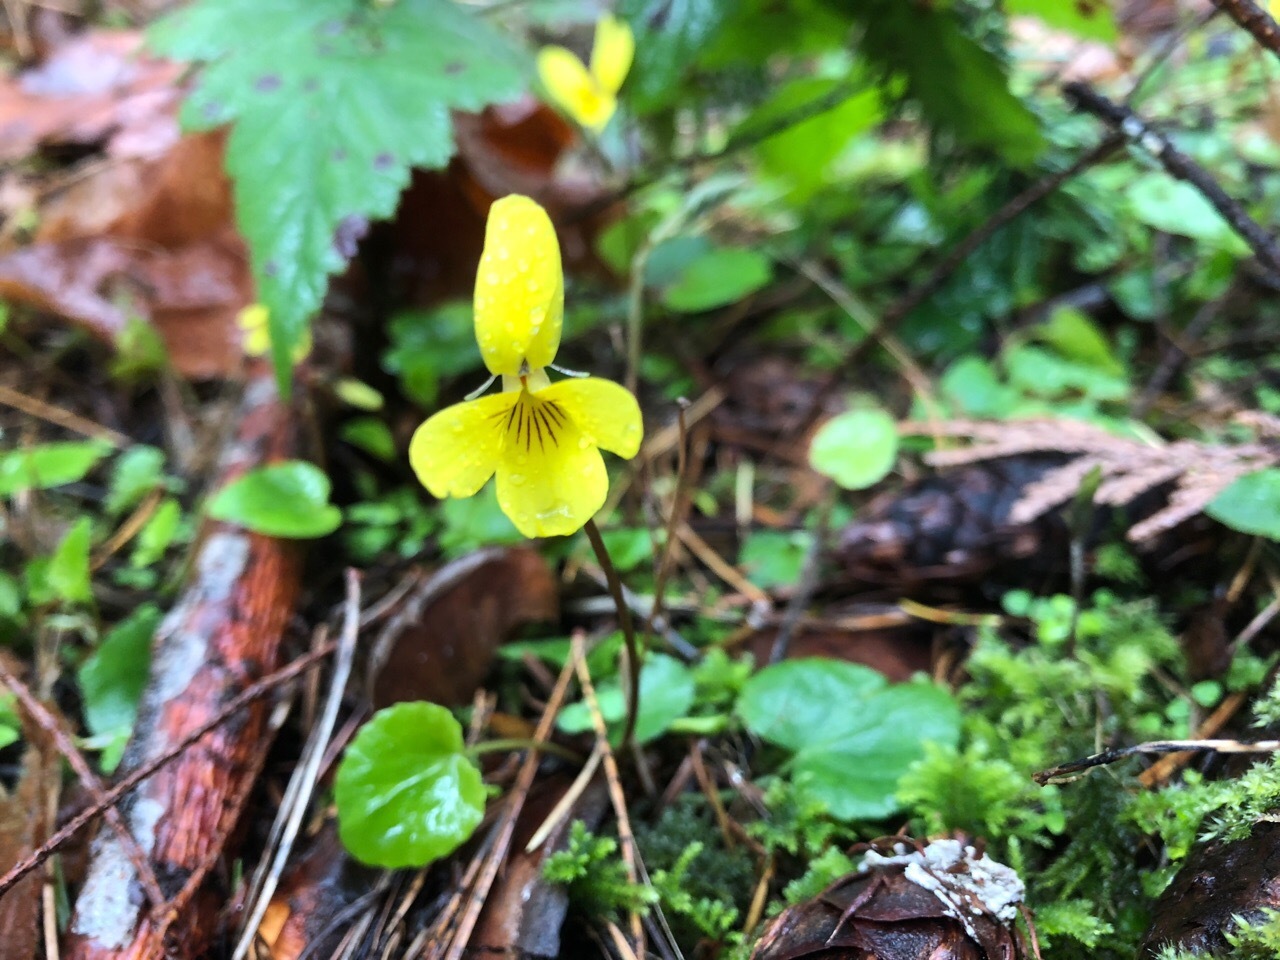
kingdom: Plantae
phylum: Tracheophyta
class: Magnoliopsida
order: Malpighiales
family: Violaceae
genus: Viola
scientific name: Viola sempervirens
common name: Evergreen violet
